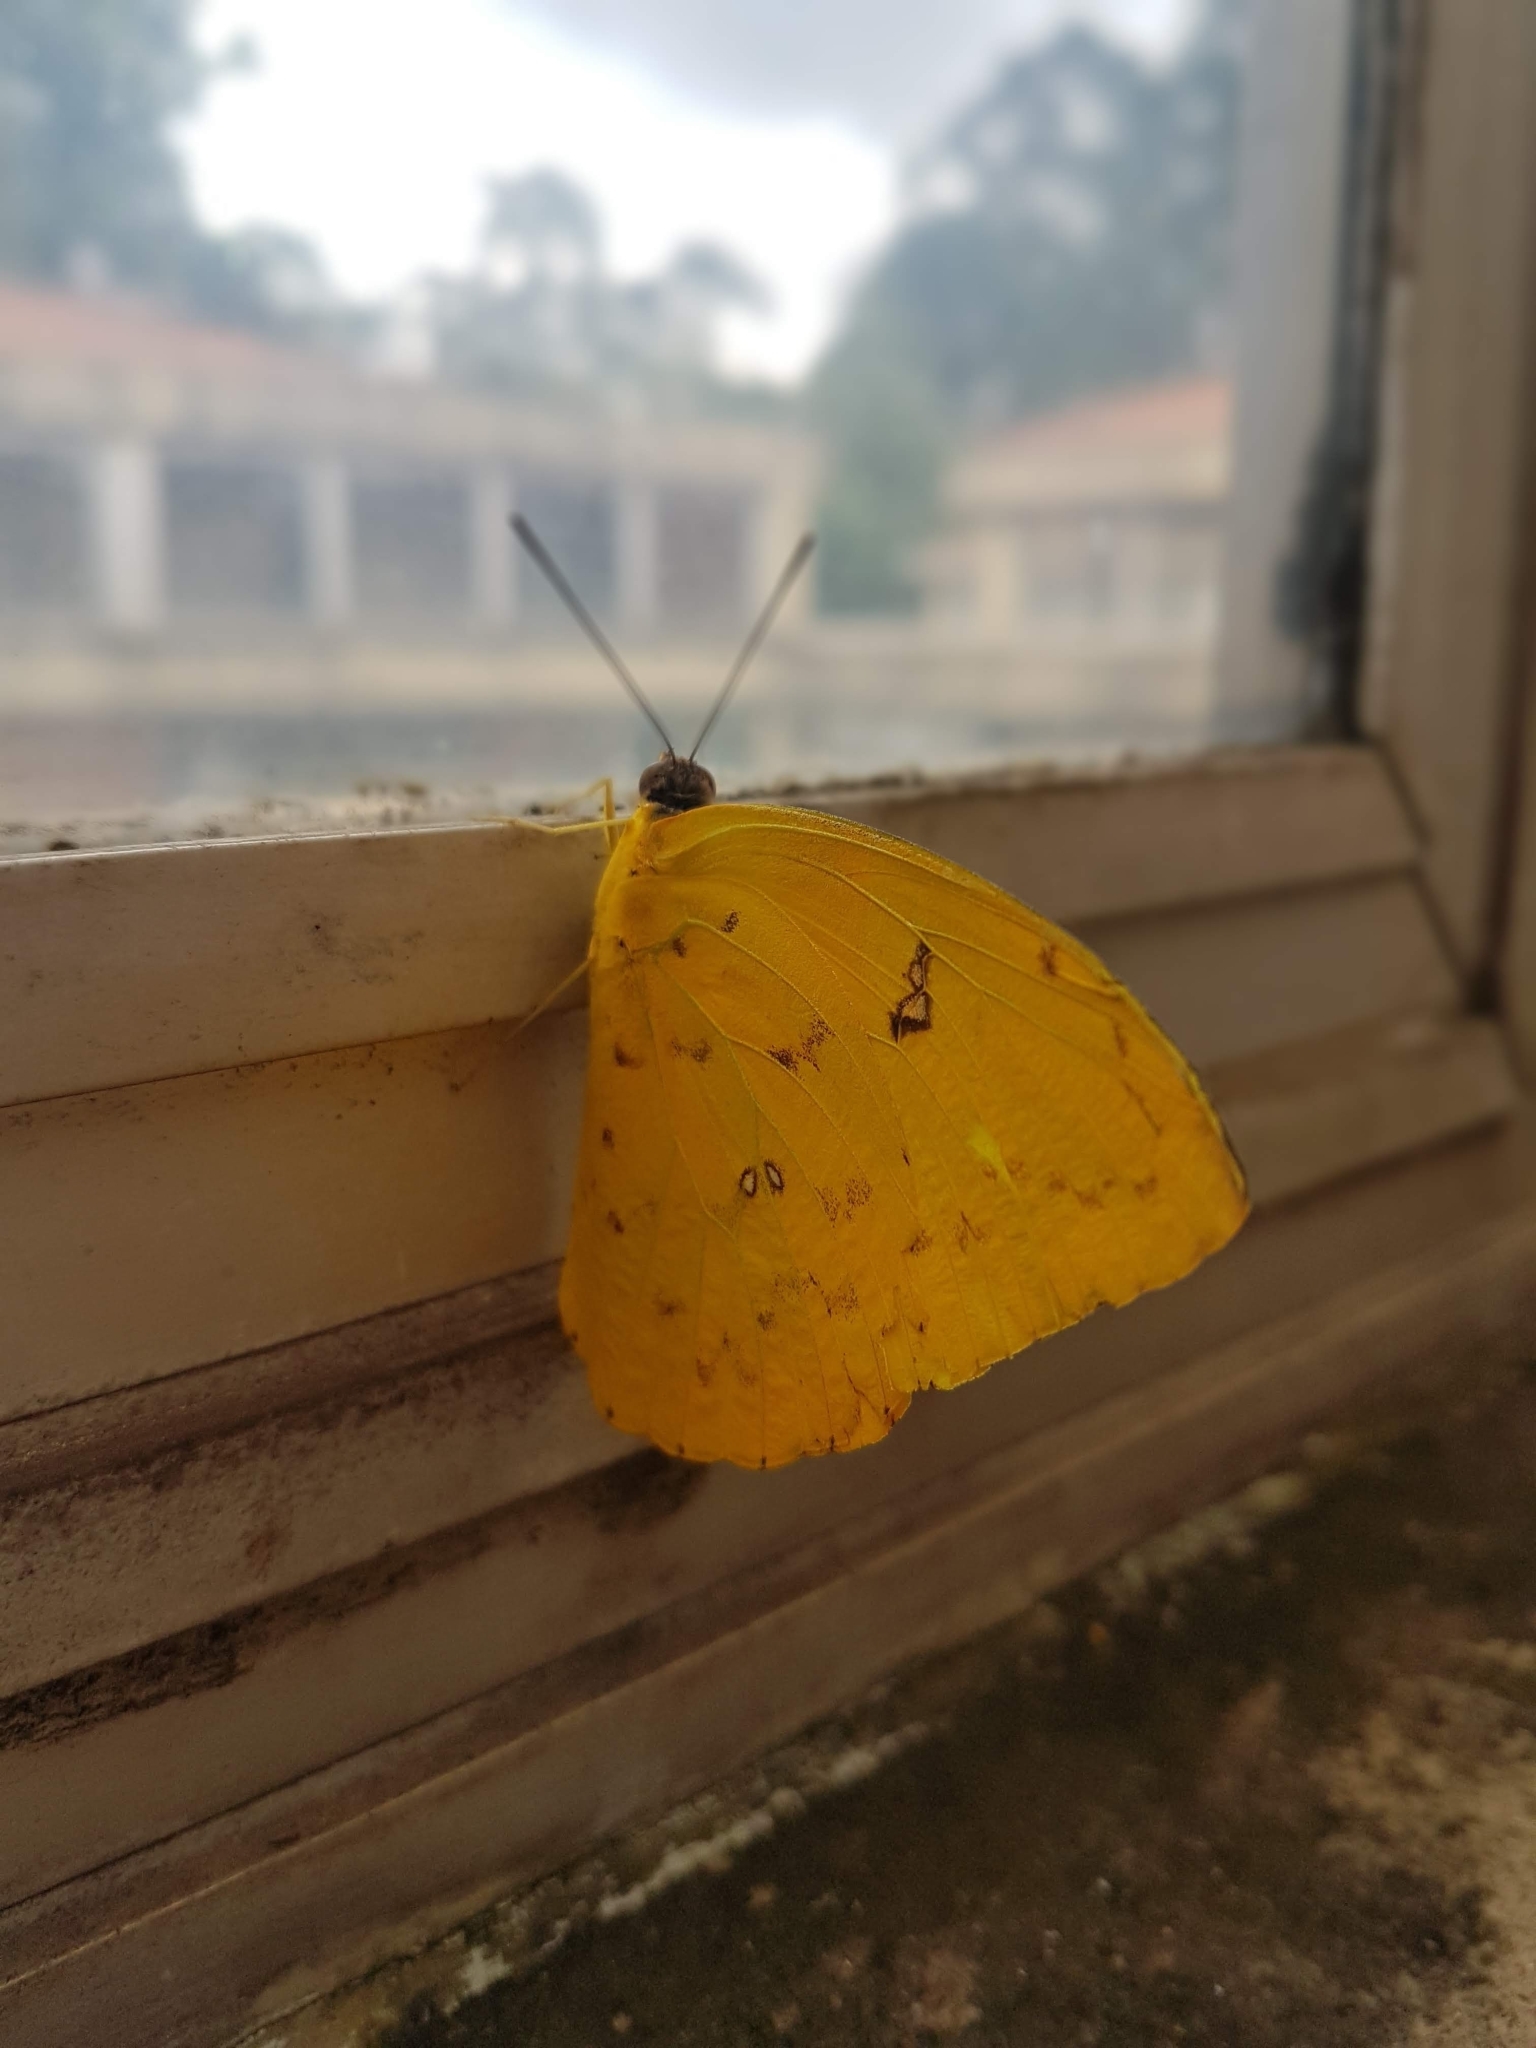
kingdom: Animalia
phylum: Arthropoda
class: Insecta
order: Lepidoptera
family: Pieridae
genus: Phoebis
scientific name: Phoebis philea
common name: Orange-barred giant sulphur
